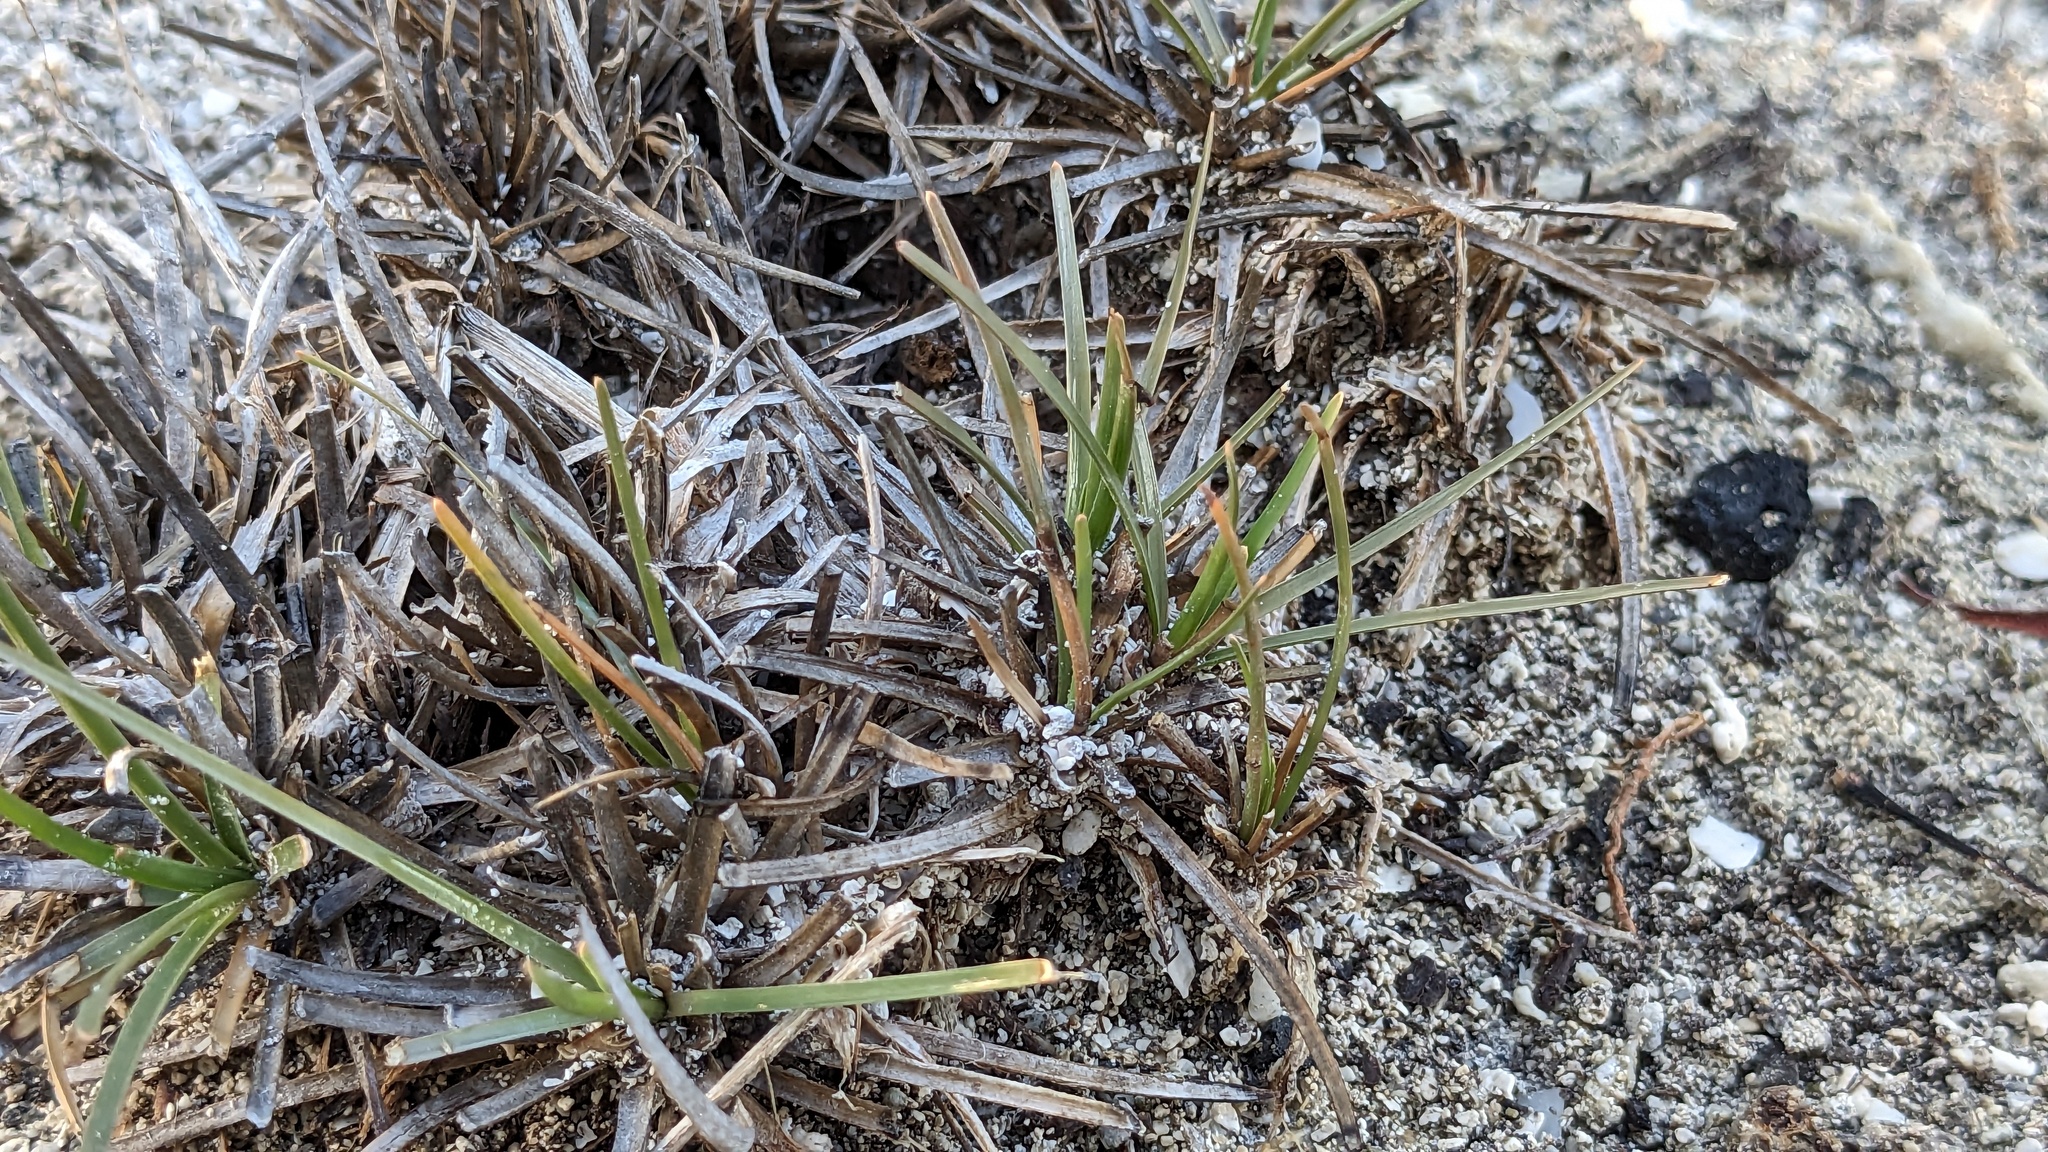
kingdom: Plantae
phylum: Tracheophyta
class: Liliopsida
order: Poales
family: Cyperaceae
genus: Fimbristylis
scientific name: Fimbristylis cymosa
